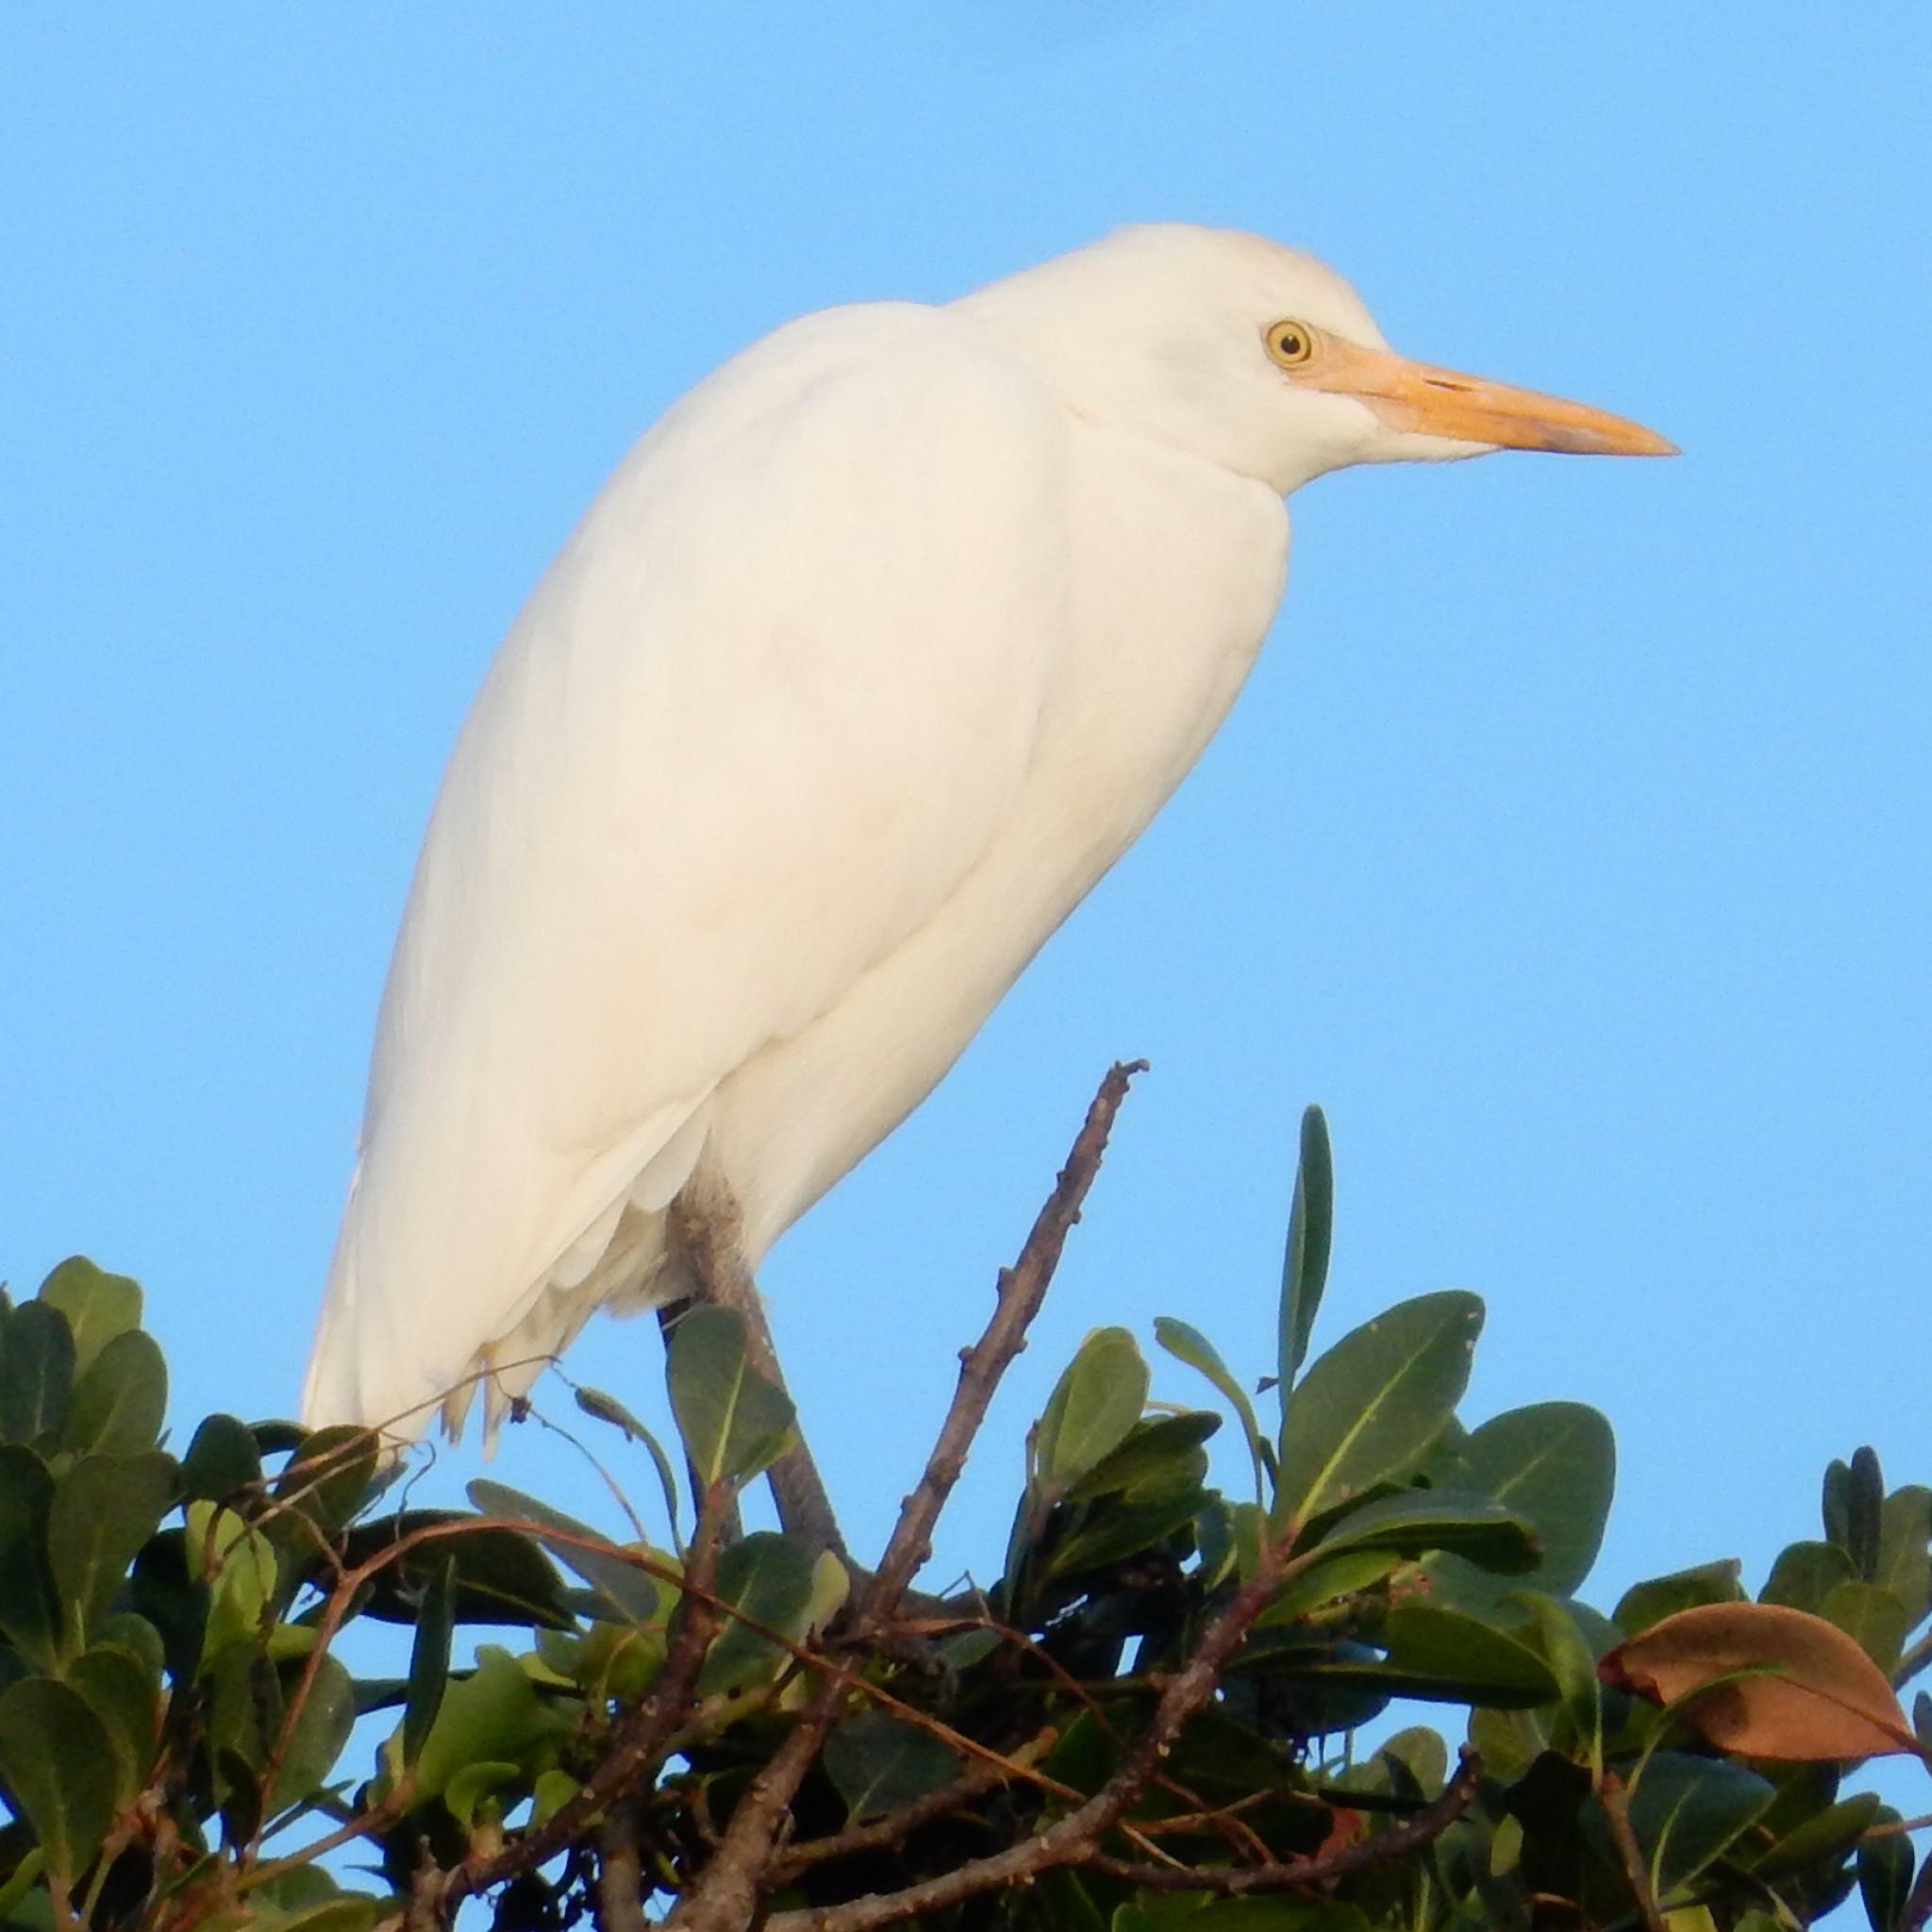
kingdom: Animalia
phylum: Chordata
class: Aves
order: Pelecaniformes
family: Ardeidae
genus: Bubulcus
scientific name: Bubulcus ibis
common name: Cattle egret
